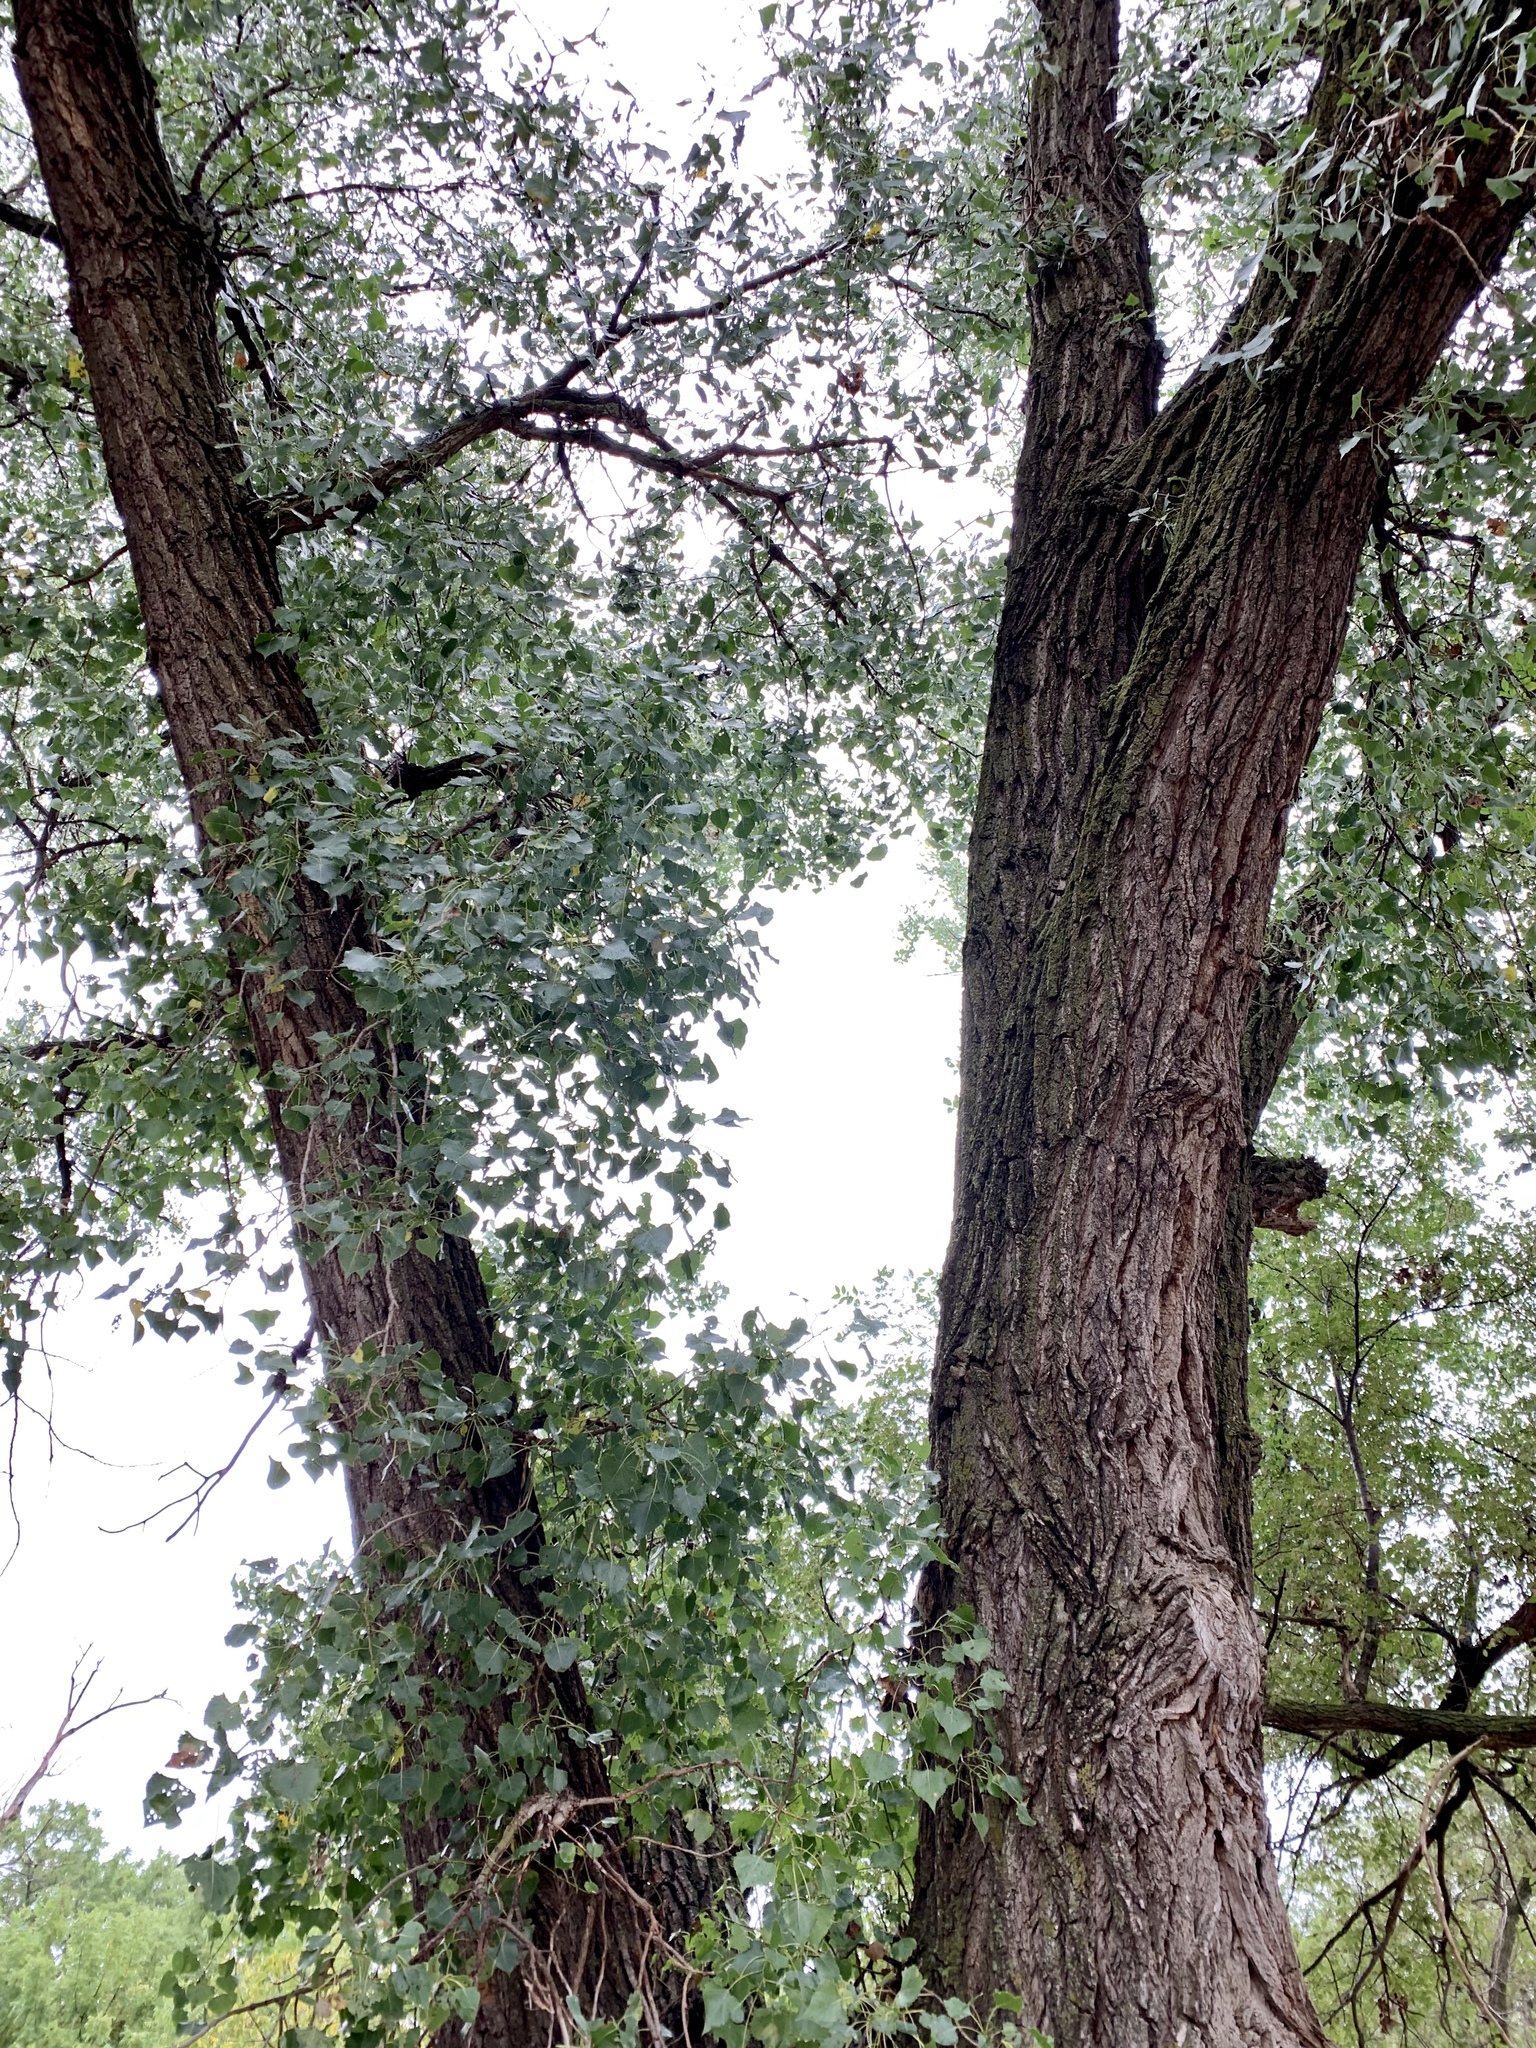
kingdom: Plantae
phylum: Tracheophyta
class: Magnoliopsida
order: Malpighiales
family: Salicaceae
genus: Populus
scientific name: Populus deltoides
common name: Eastern cottonwood
